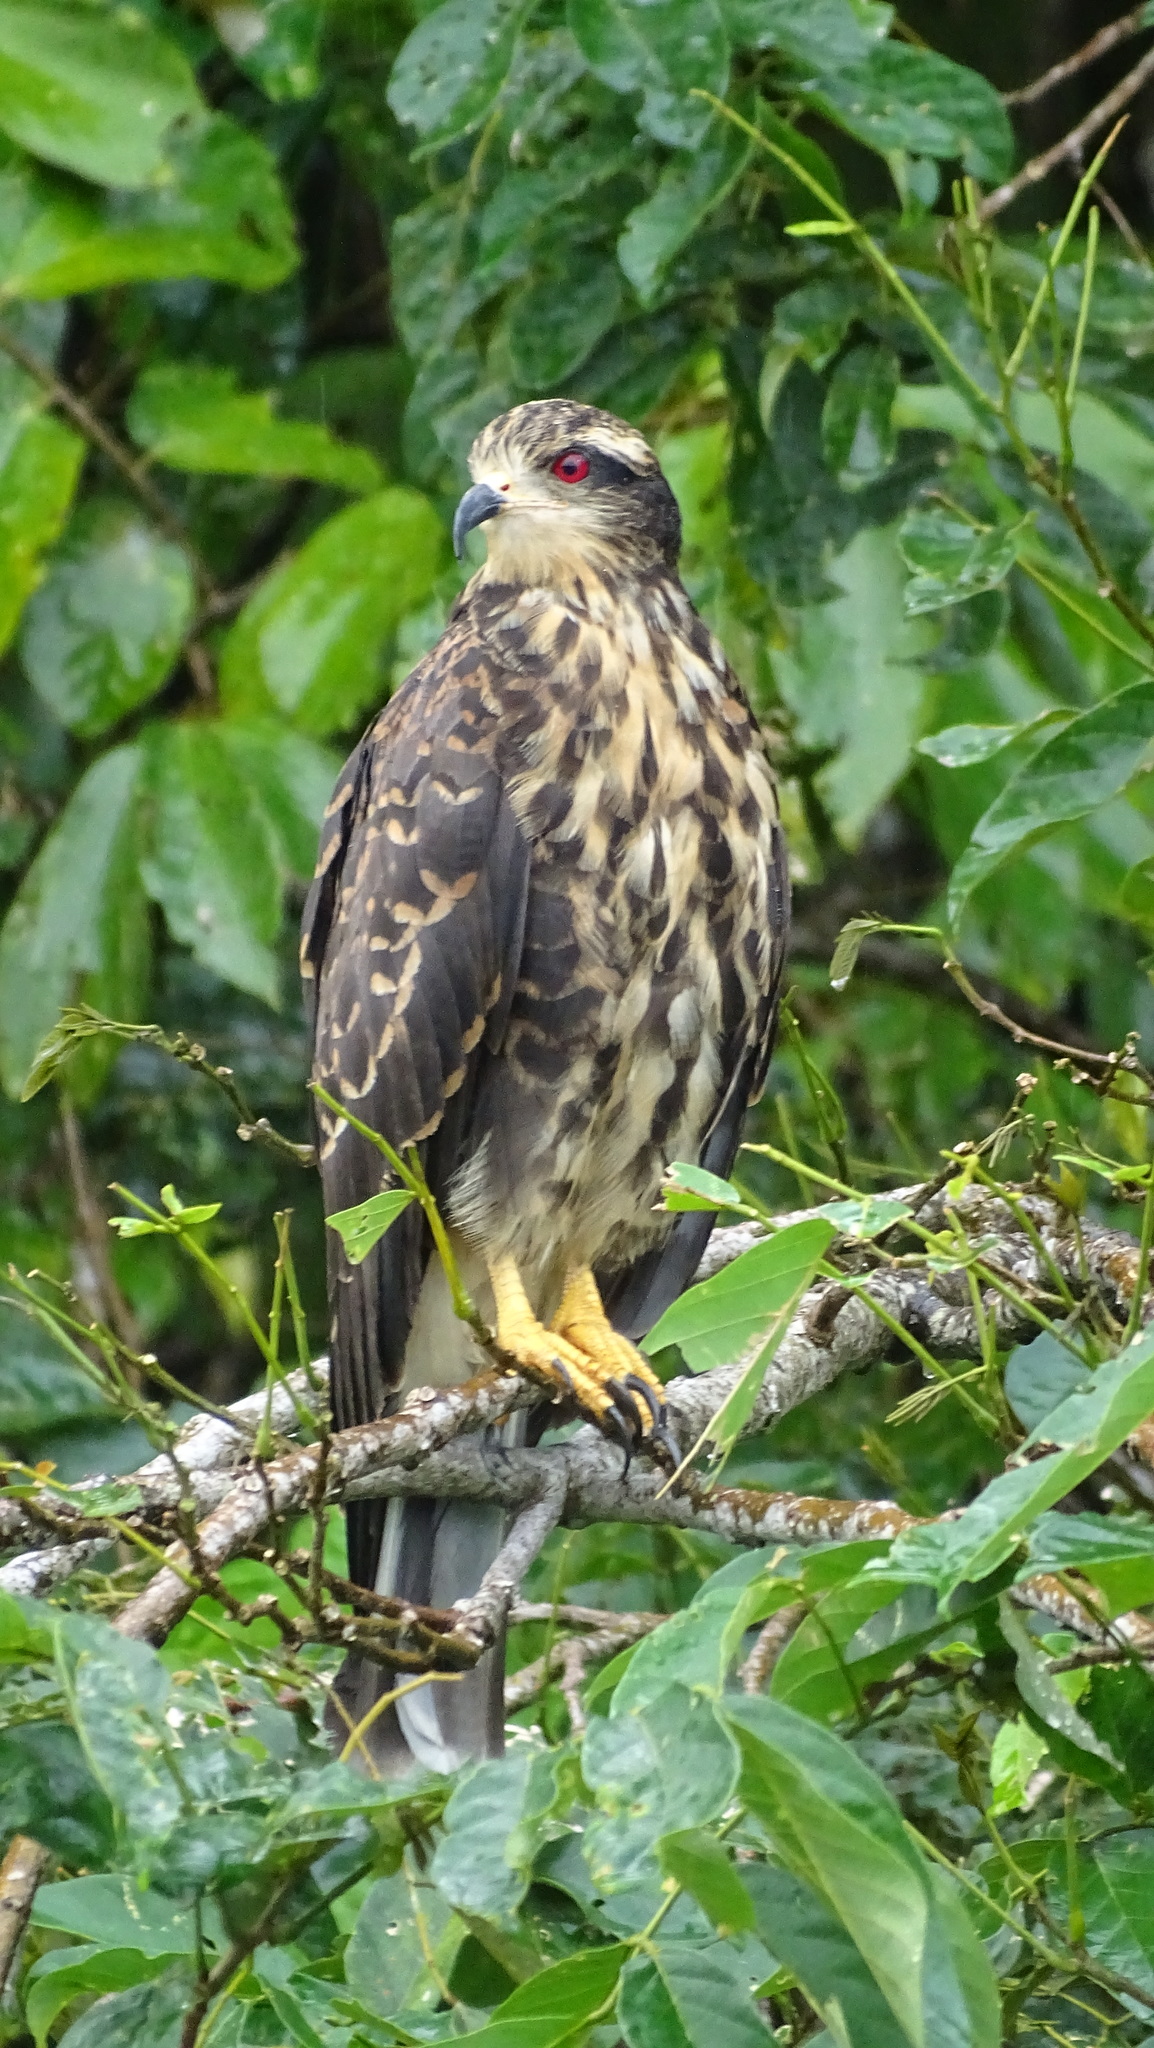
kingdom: Animalia
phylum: Chordata
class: Aves
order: Accipitriformes
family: Accipitridae
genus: Rostrhamus
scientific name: Rostrhamus sociabilis
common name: Snail kite
